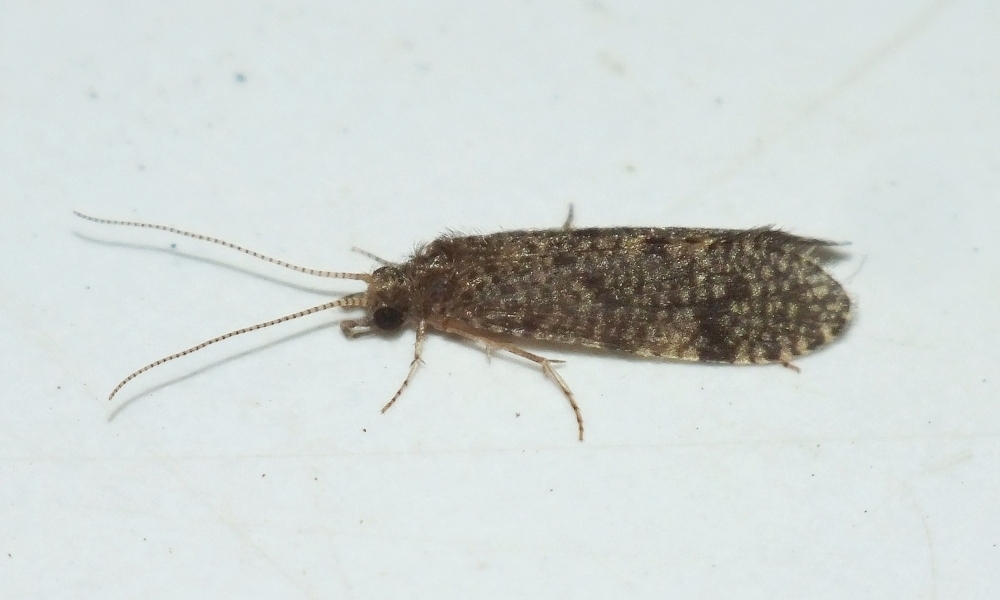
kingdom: Animalia
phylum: Arthropoda
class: Insecta
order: Trichoptera
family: Ecnomidae
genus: Ecnomus
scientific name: Ecnomus tenellus
